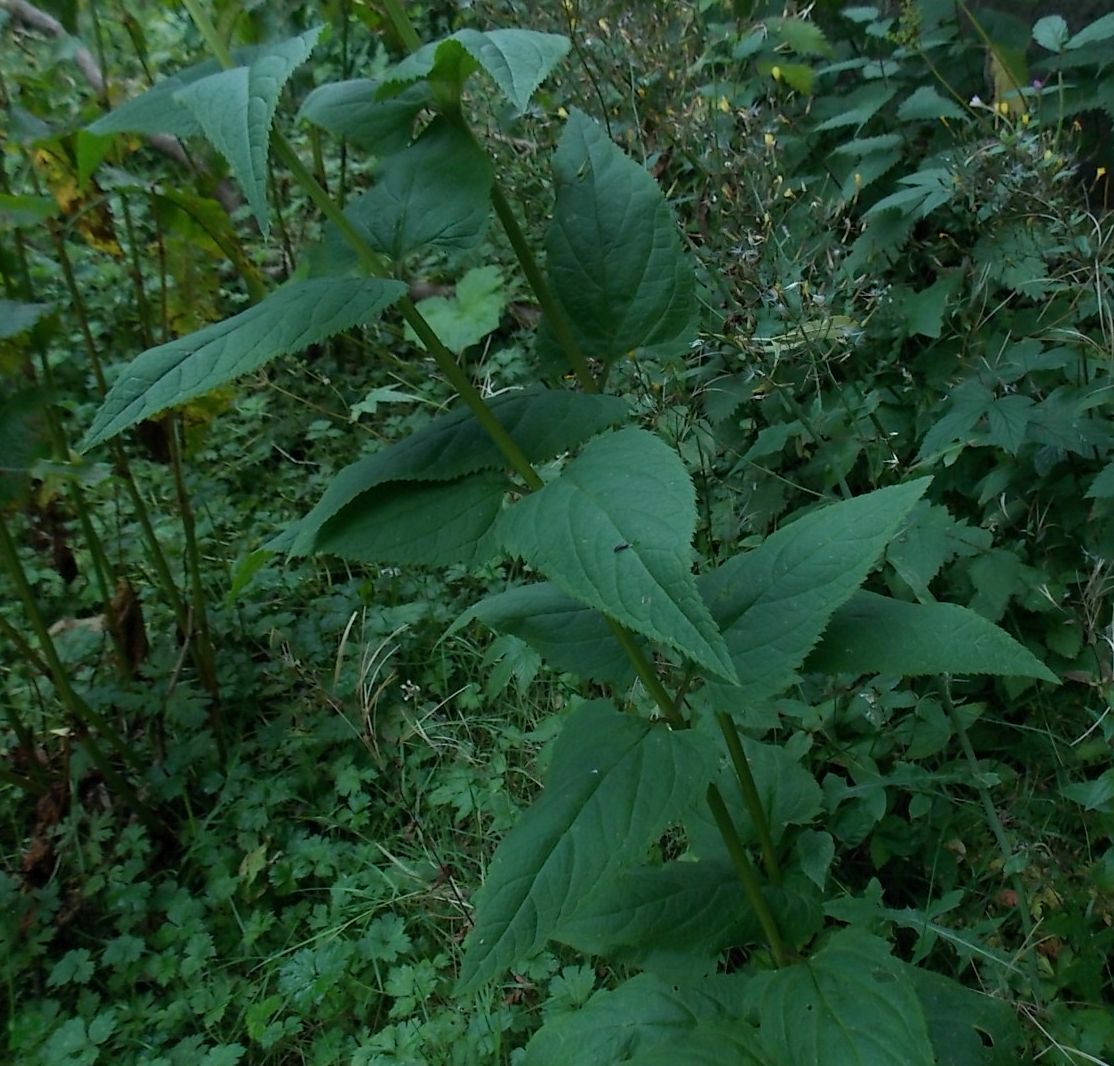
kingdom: Plantae
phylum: Tracheophyta
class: Magnoliopsida
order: Lamiales
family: Scrophulariaceae
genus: Scrophularia
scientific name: Scrophularia nodosa
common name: Common figwort
